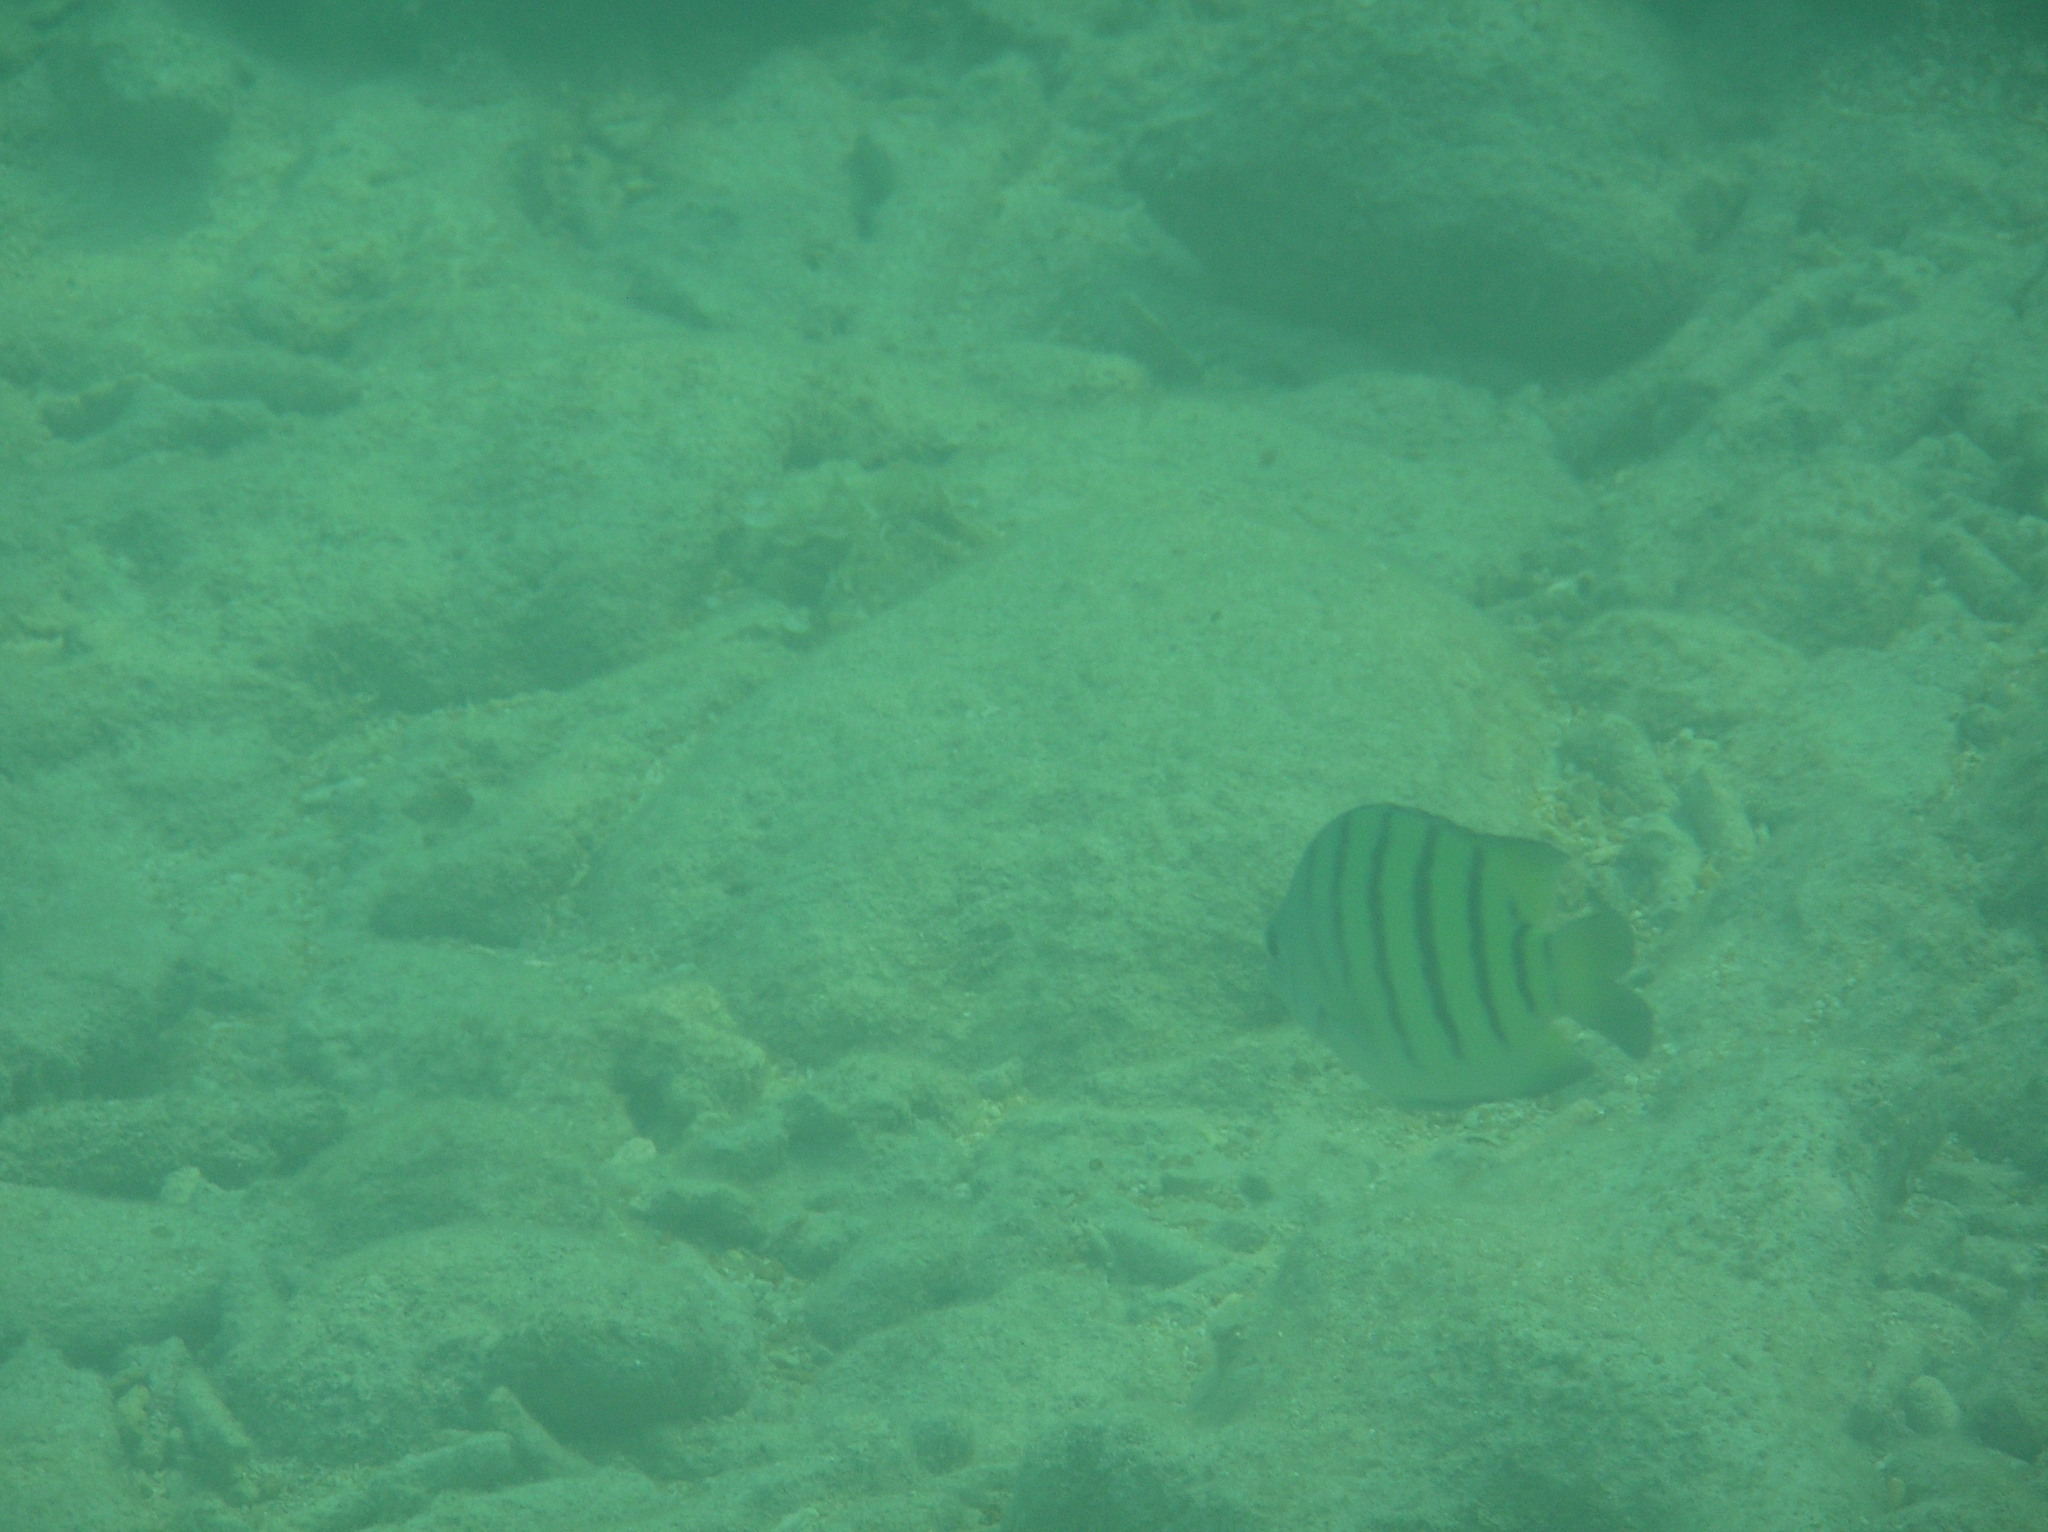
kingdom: Animalia
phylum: Chordata
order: Perciformes
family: Pomacentridae
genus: Abudefduf
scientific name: Abudefduf bengalensis
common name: Bengal sergeant
